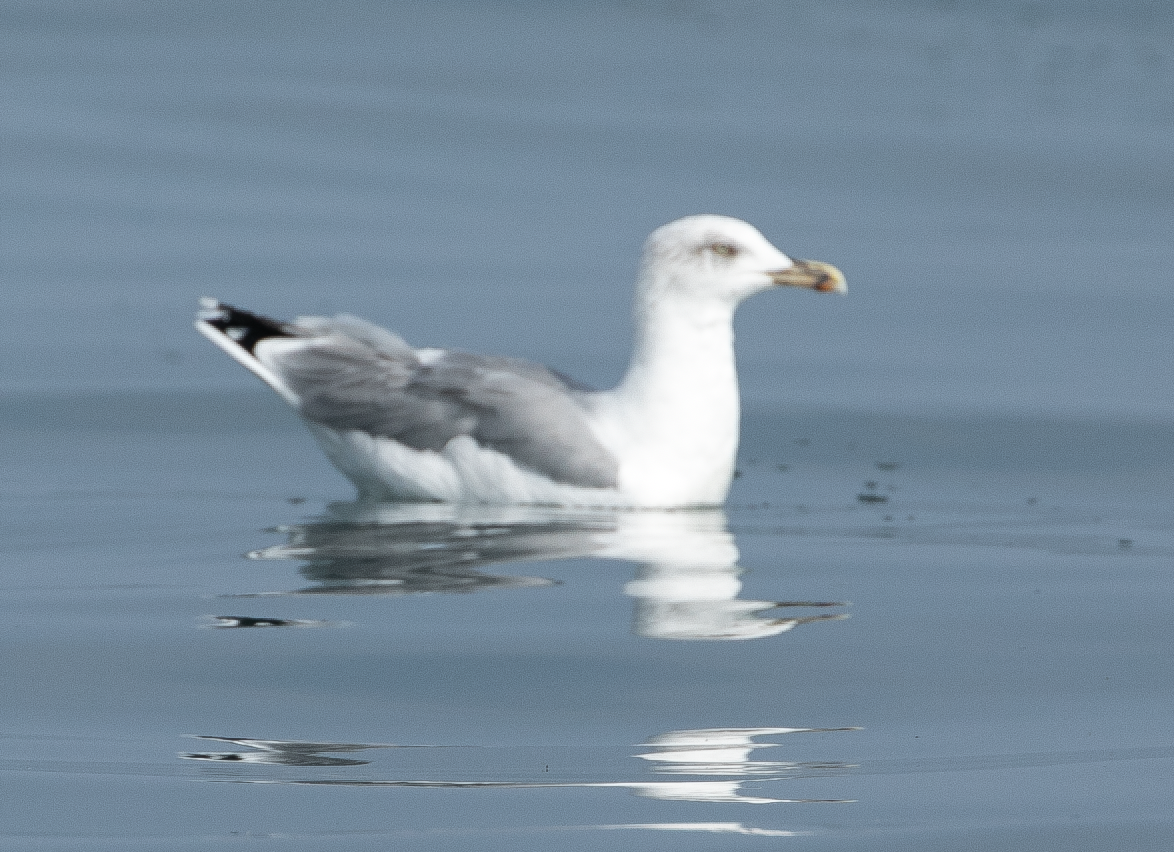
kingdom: Animalia
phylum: Chordata
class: Aves
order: Charadriiformes
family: Laridae
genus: Larus
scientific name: Larus michahellis
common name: Yellow-legged gull
